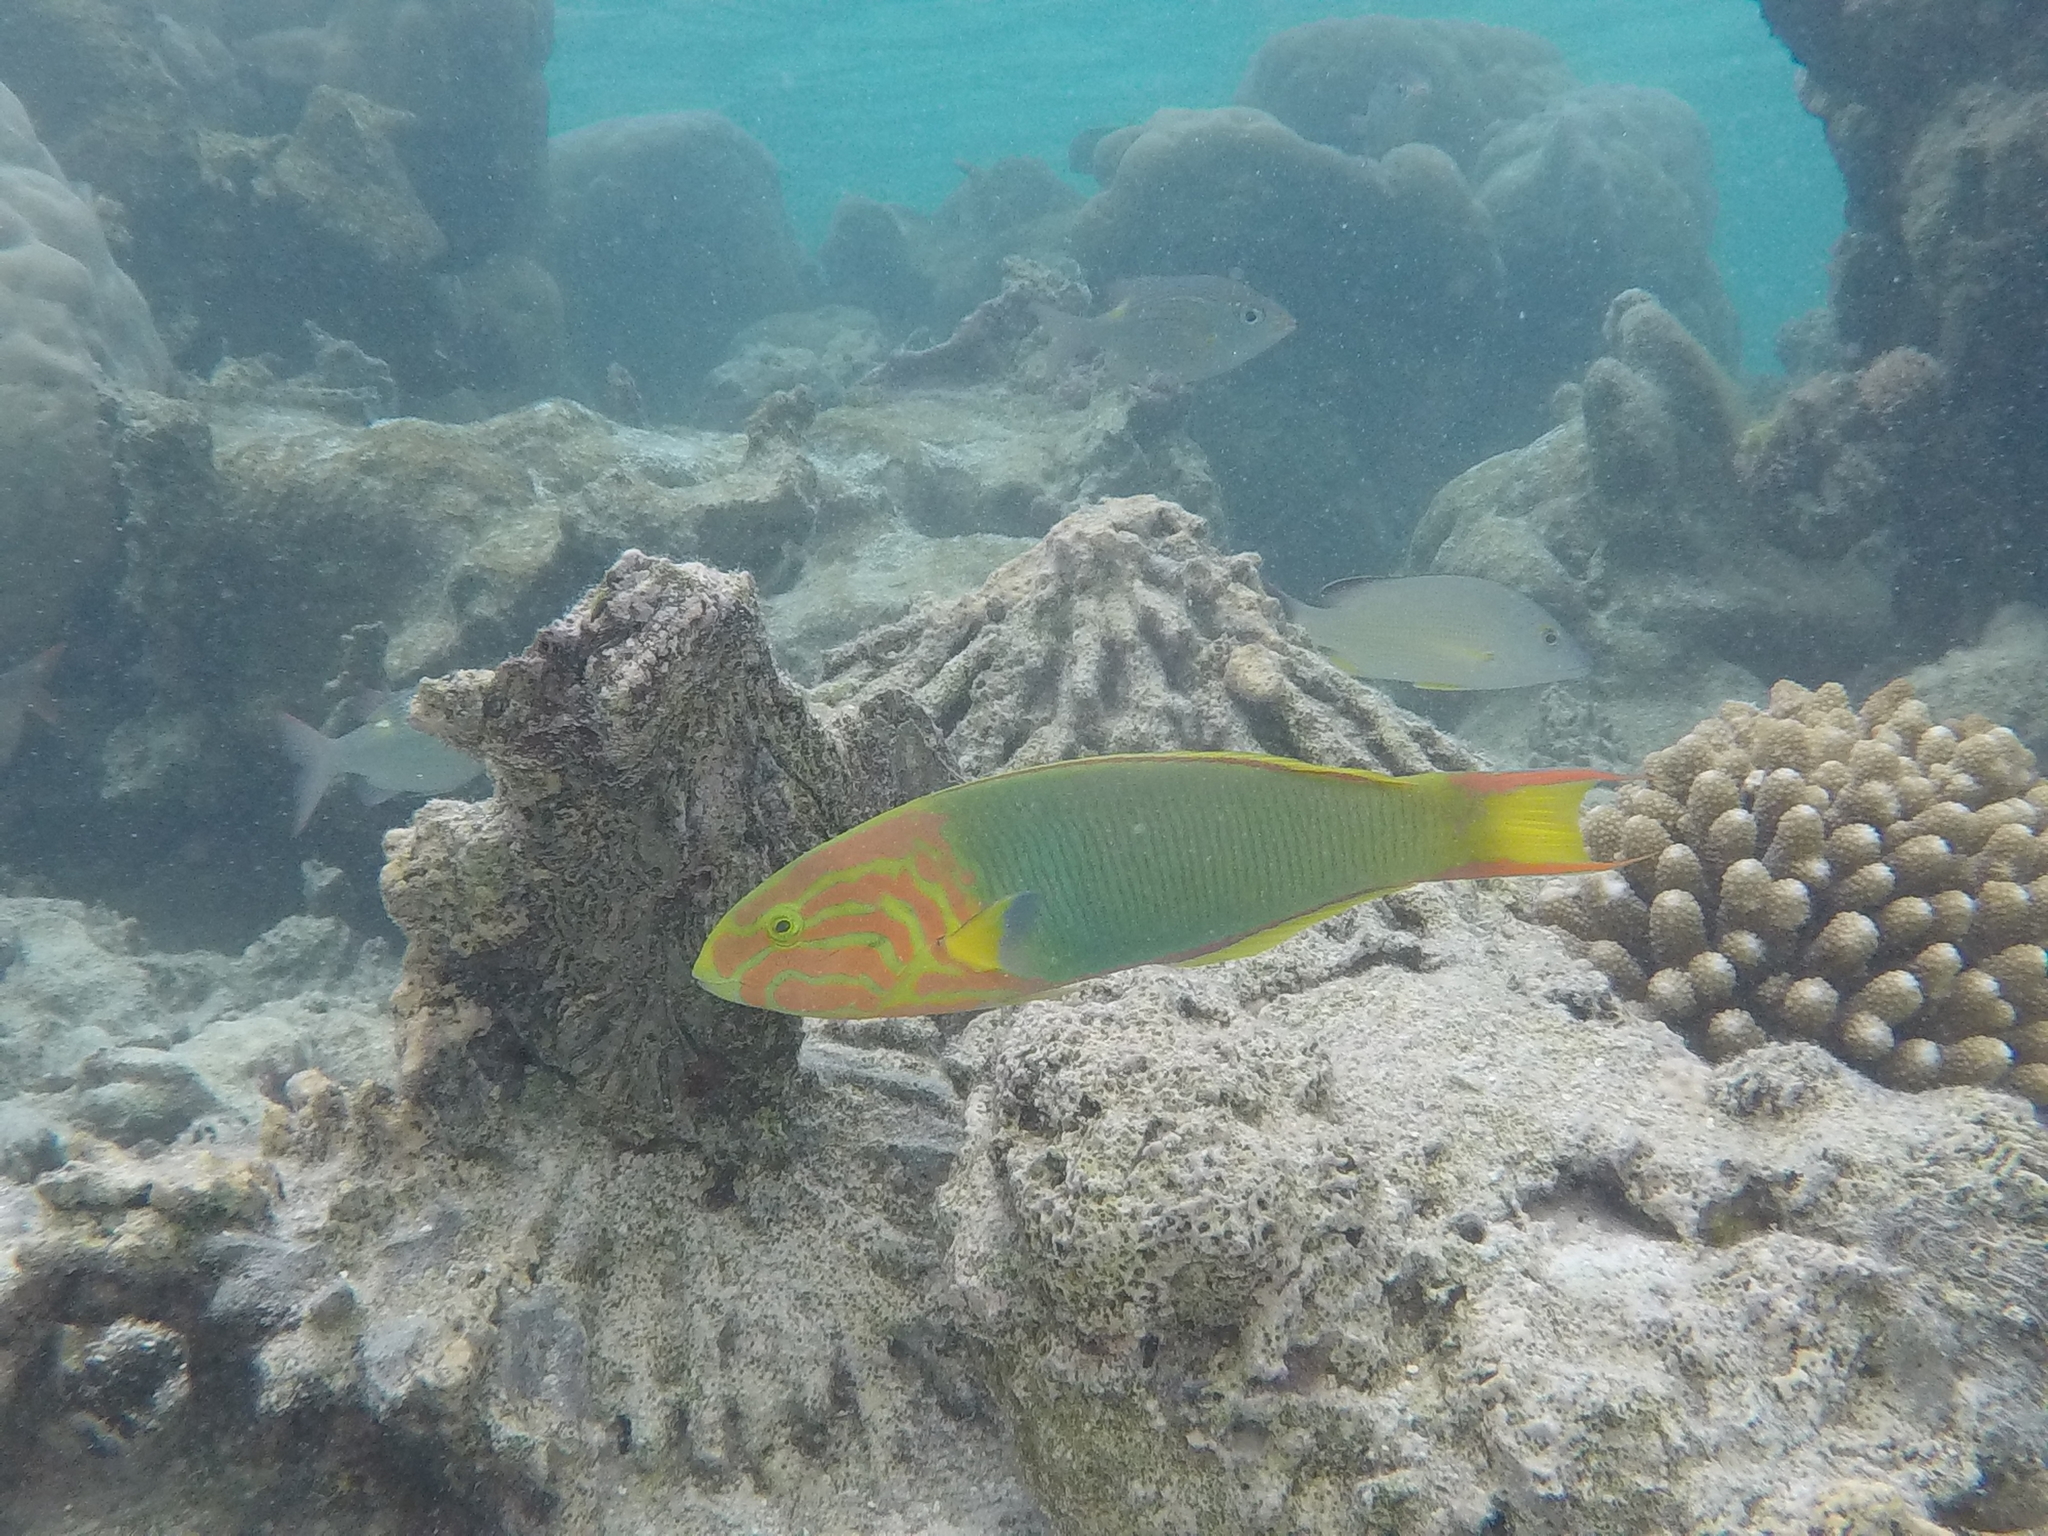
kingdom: Animalia
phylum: Chordata
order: Perciformes
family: Labridae
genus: Thalassoma
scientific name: Thalassoma lutescens
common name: Green moon wrasse
